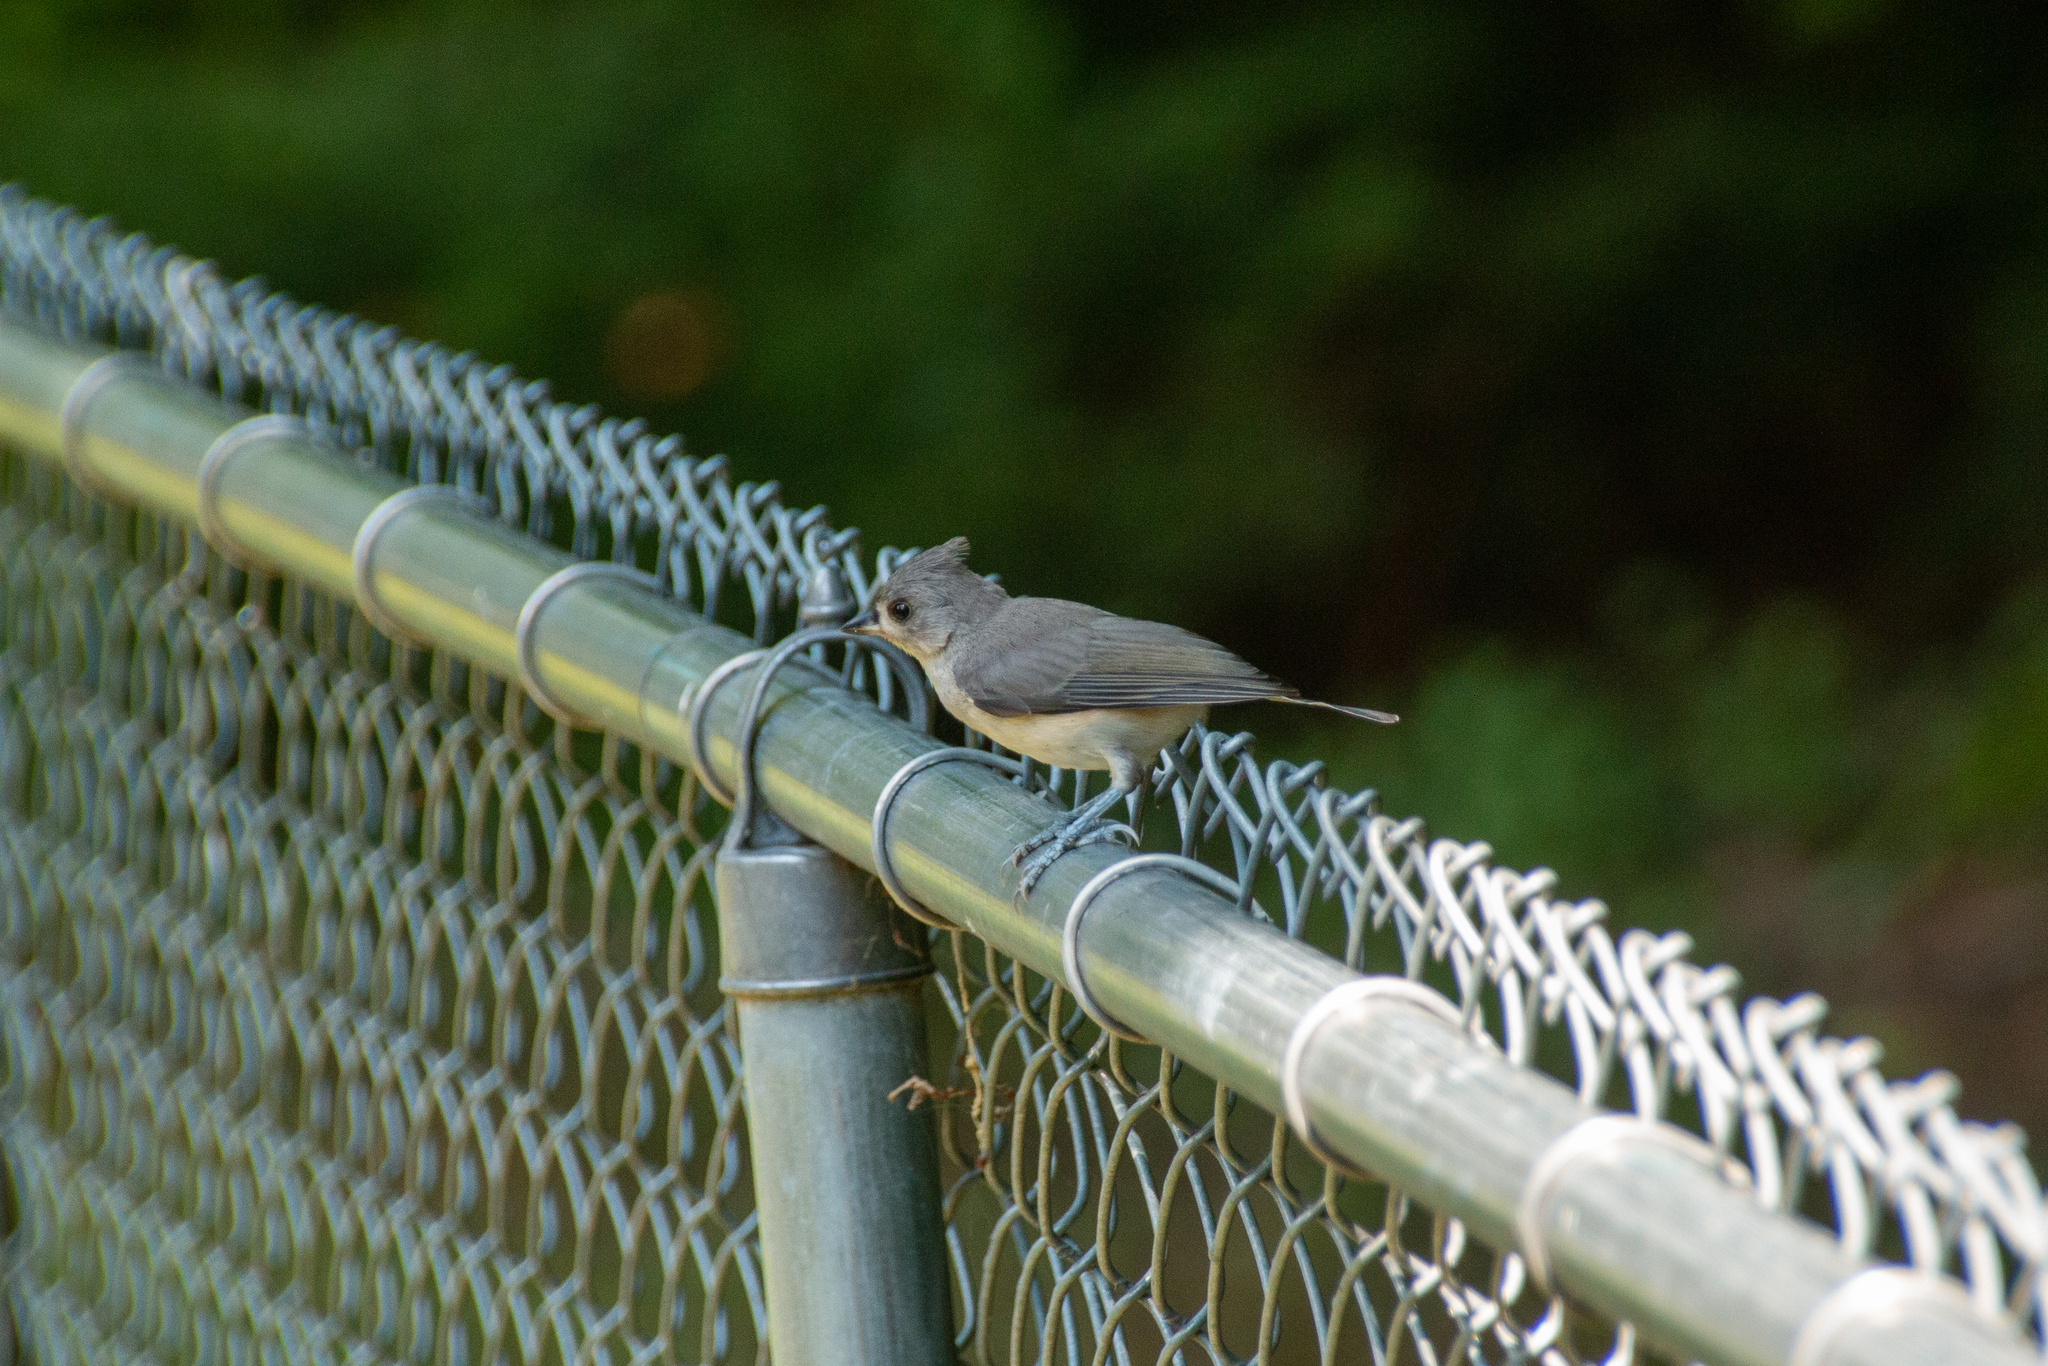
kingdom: Animalia
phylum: Chordata
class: Aves
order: Passeriformes
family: Paridae
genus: Baeolophus
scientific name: Baeolophus bicolor
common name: Tufted titmouse
